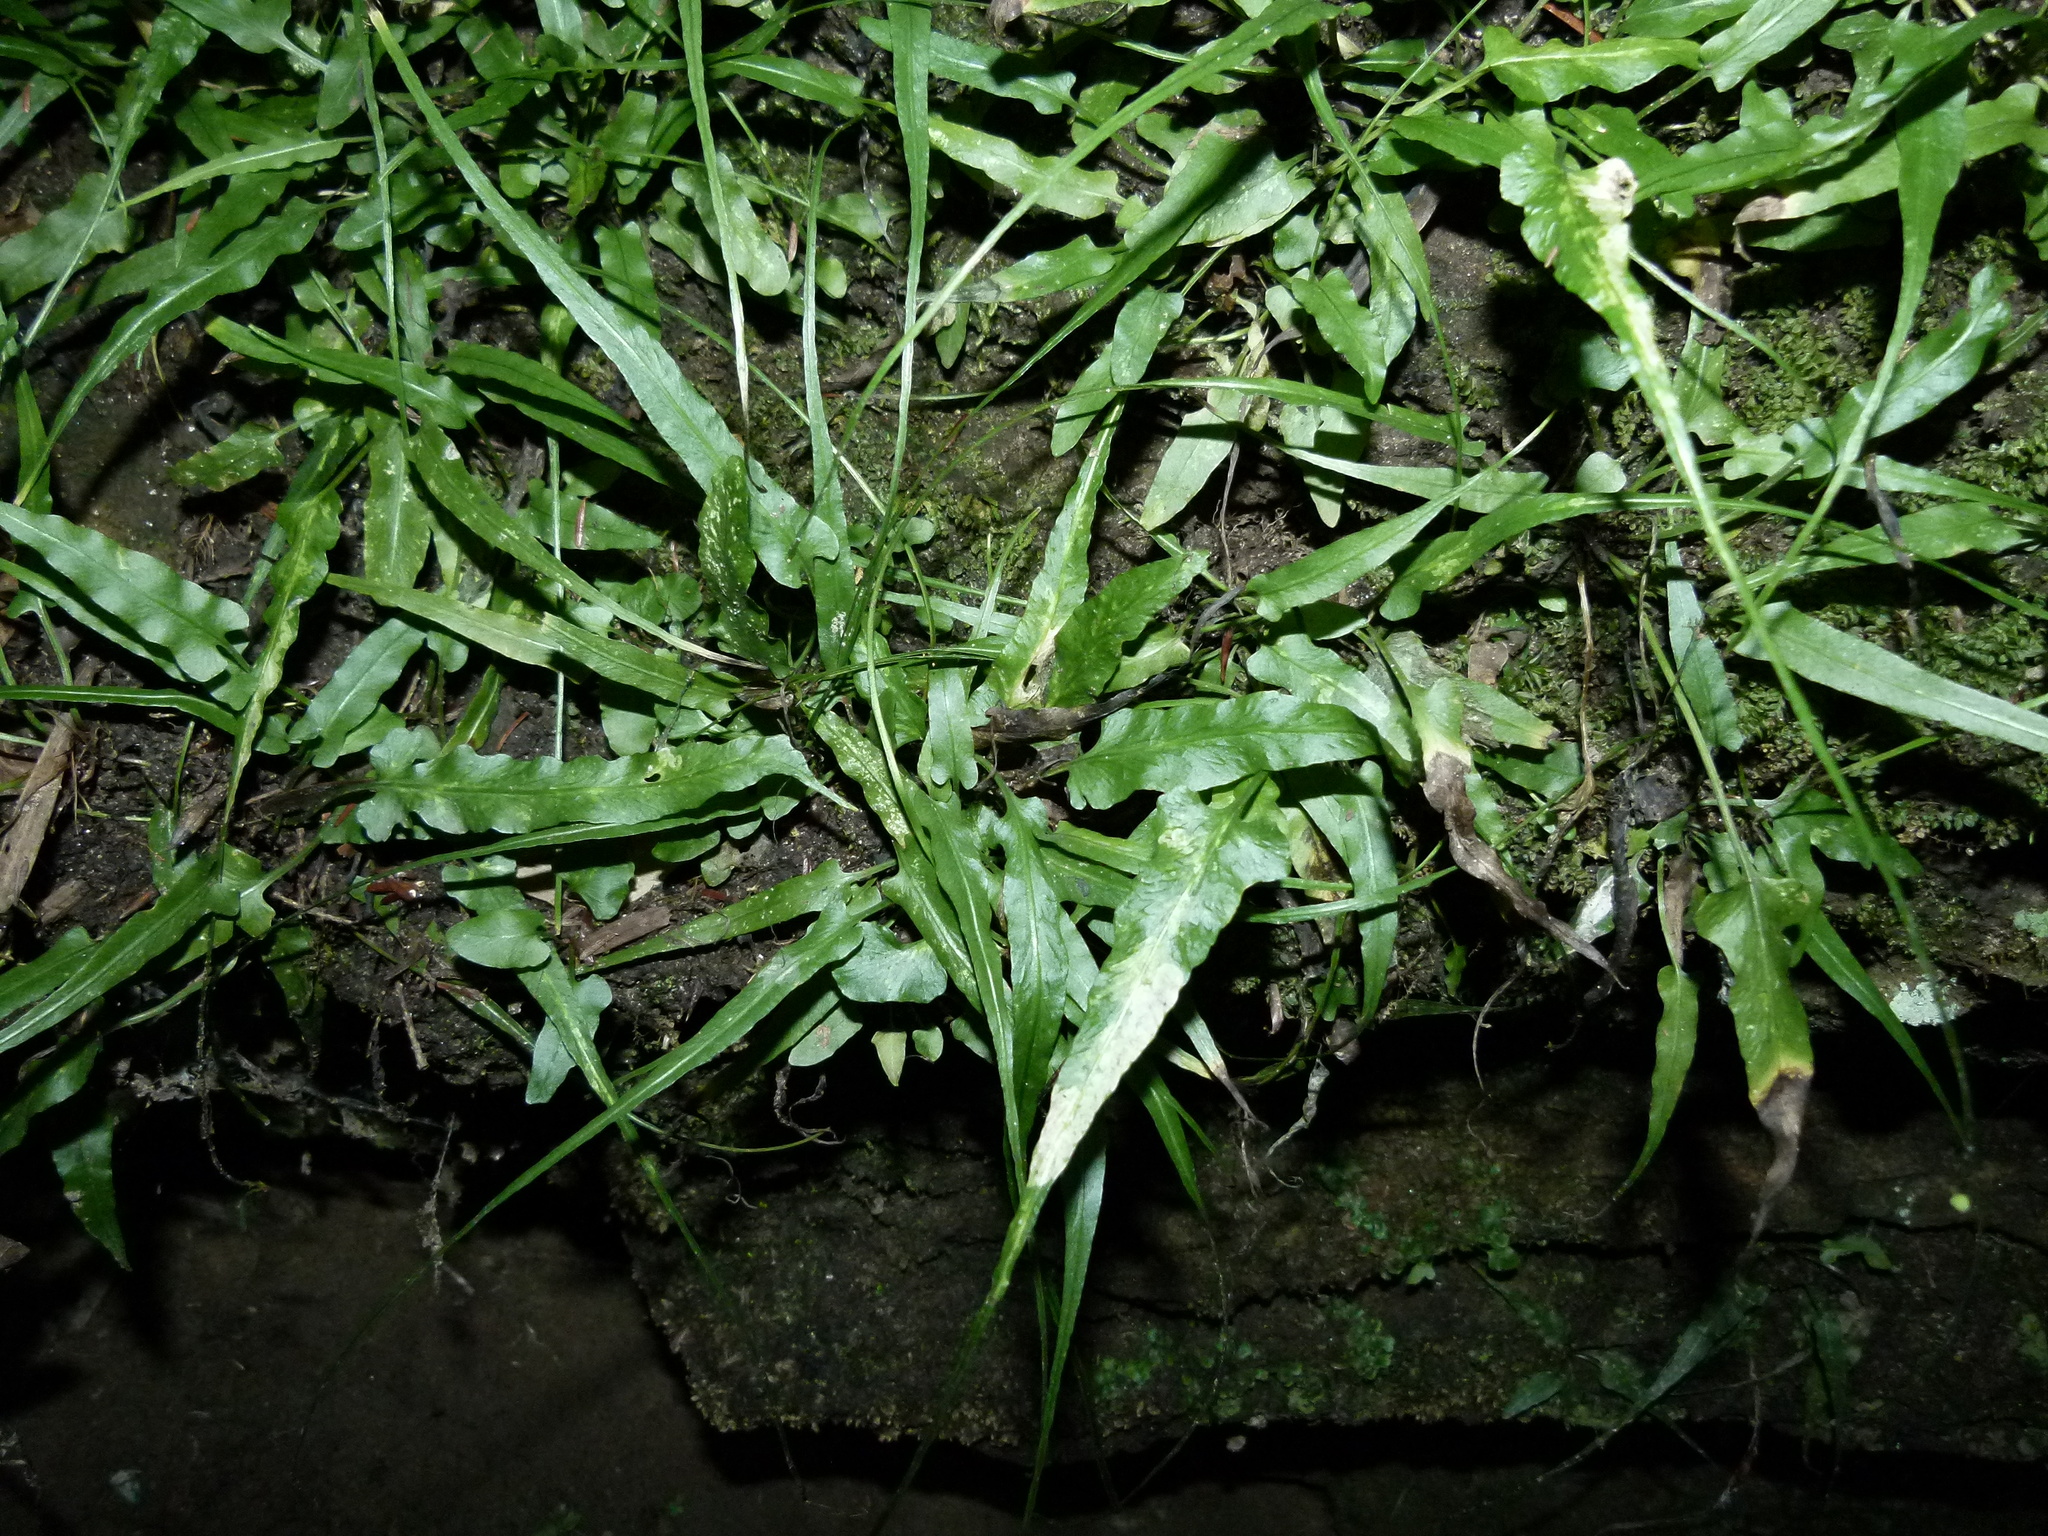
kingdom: Plantae
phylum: Tracheophyta
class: Polypodiopsida
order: Polypodiales
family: Aspleniaceae
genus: Asplenium
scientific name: Asplenium rhizophyllum
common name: Walking fern
